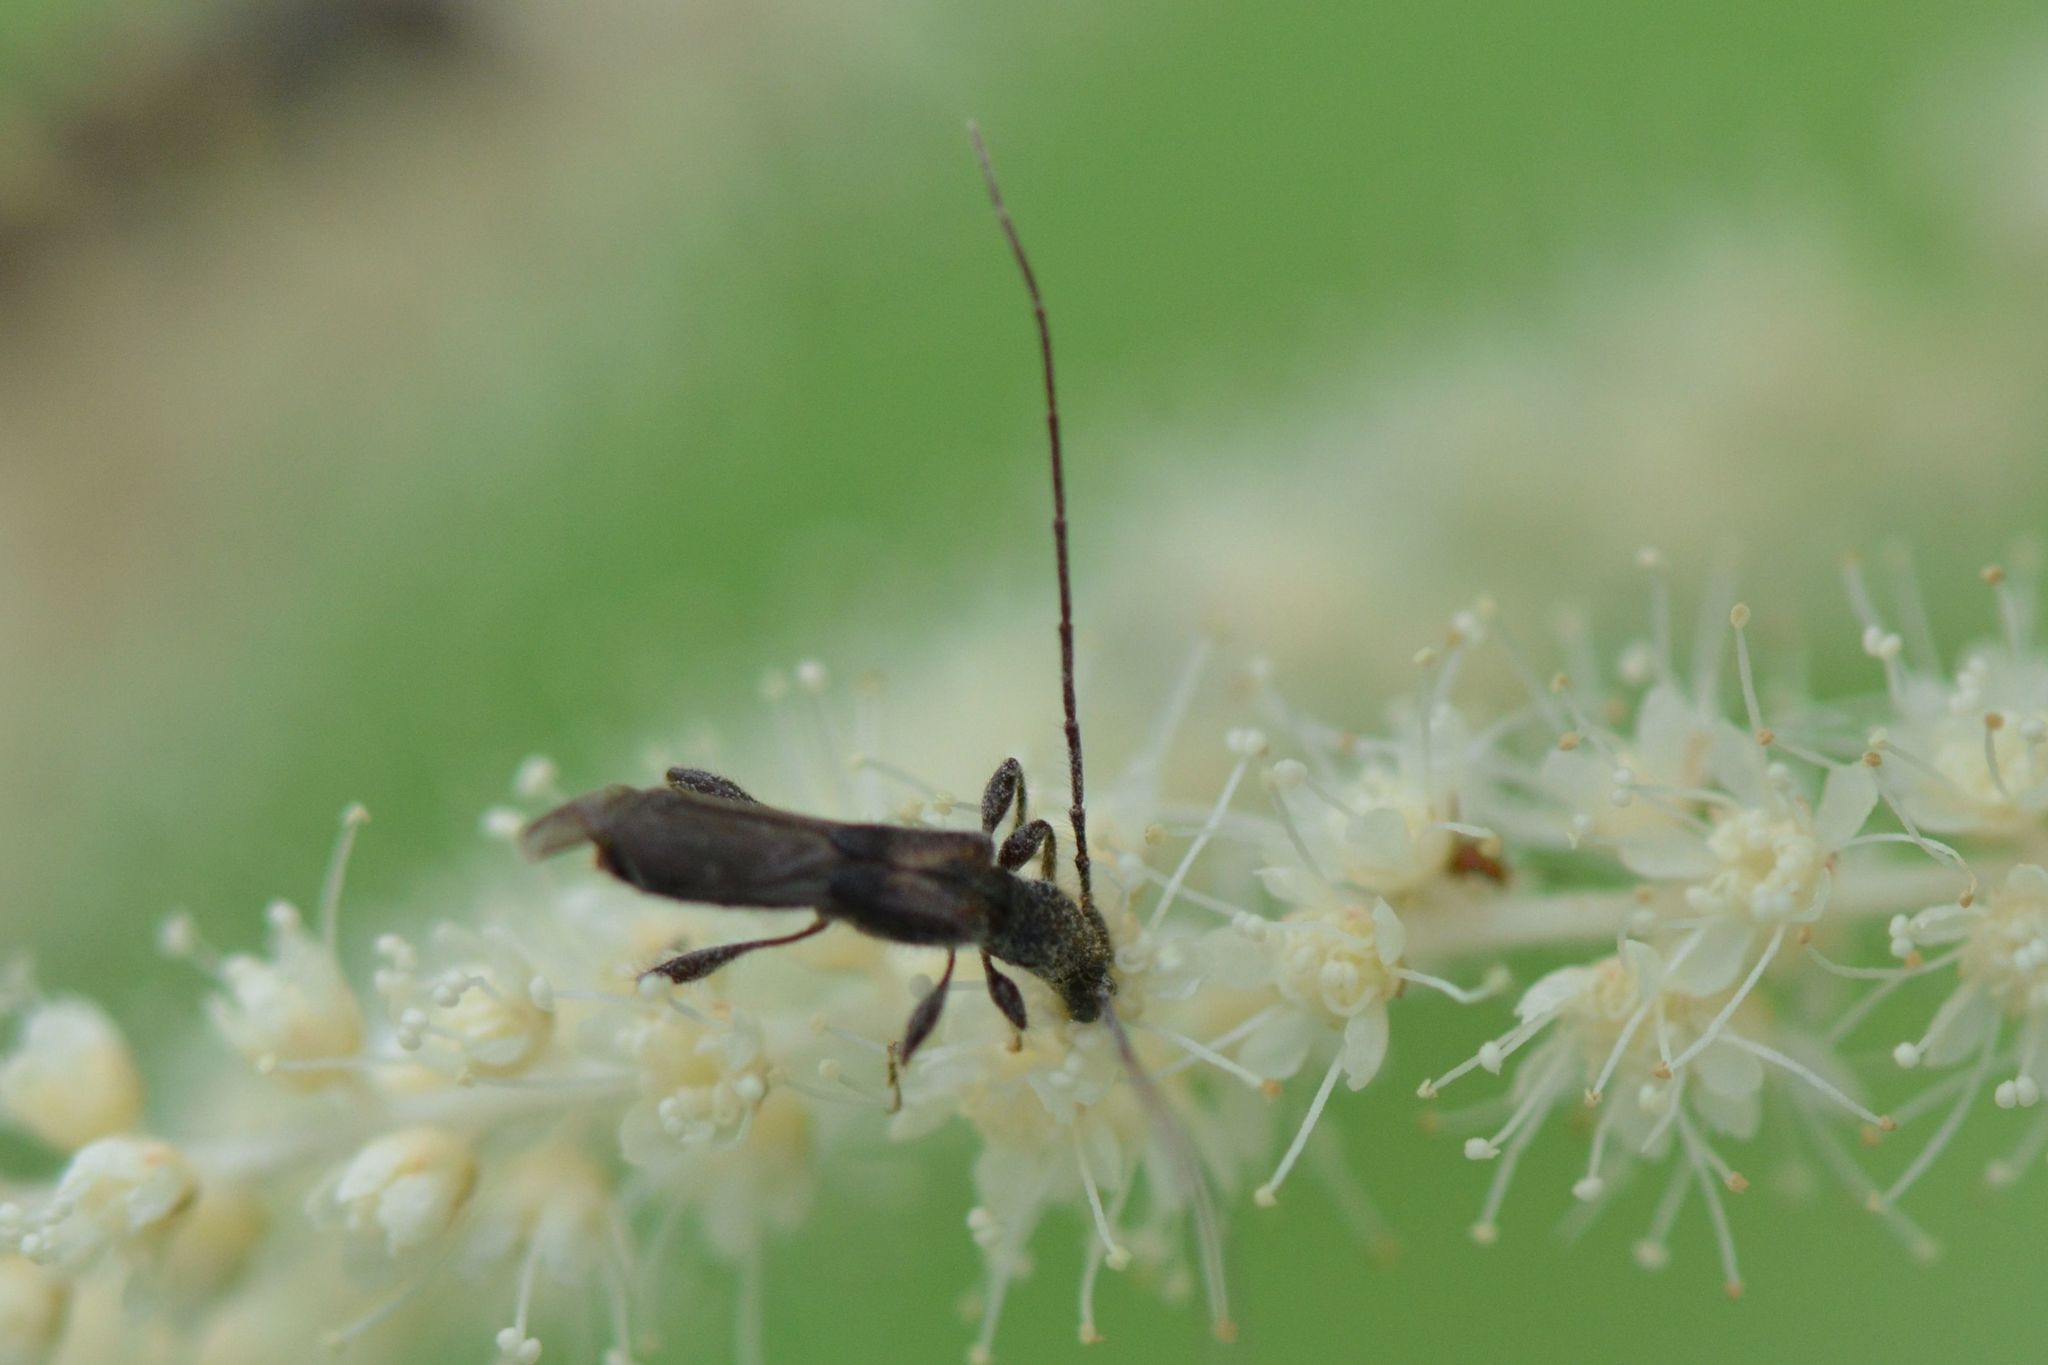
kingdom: Animalia
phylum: Arthropoda
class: Insecta
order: Coleoptera
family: Cerambycidae
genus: Molorchus
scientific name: Molorchus umbellatarum
